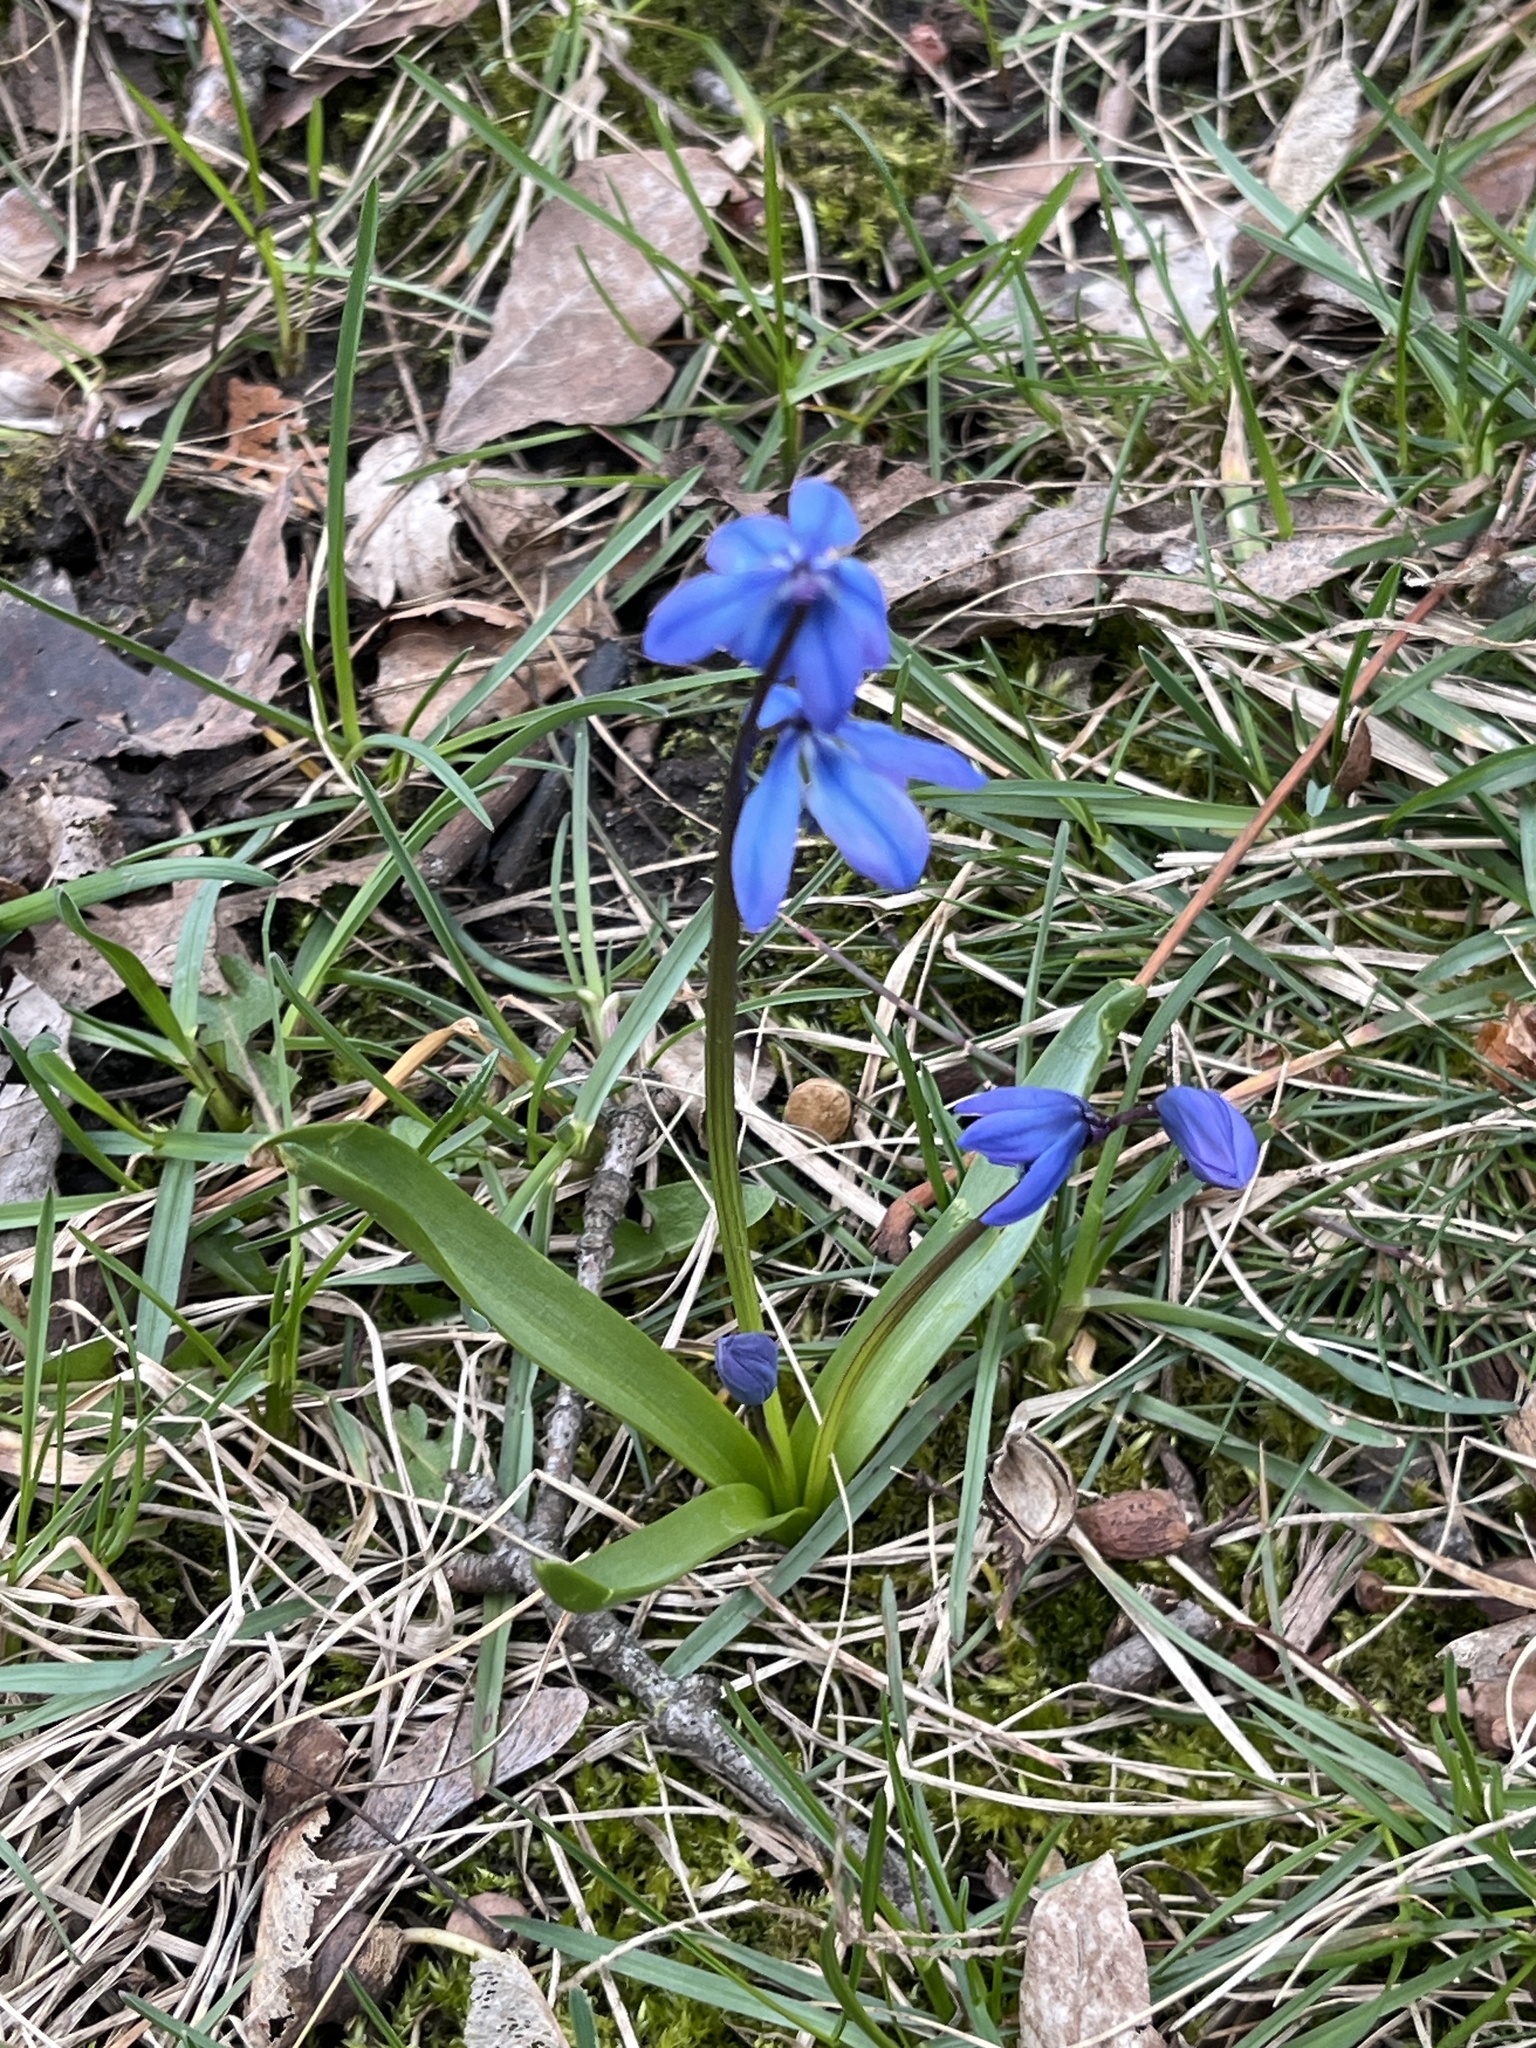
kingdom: Plantae
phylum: Tracheophyta
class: Liliopsida
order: Asparagales
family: Asparagaceae
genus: Scilla
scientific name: Scilla siberica
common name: Siberian squill
